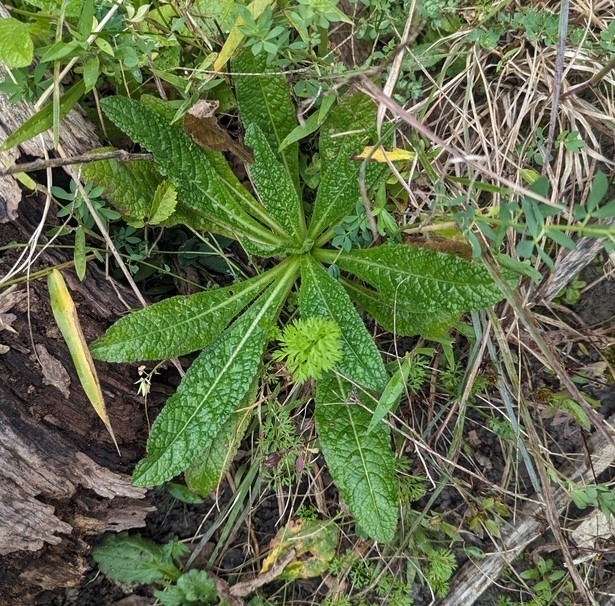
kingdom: Plantae
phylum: Tracheophyta
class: Magnoliopsida
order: Dipsacales
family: Caprifoliaceae
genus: Dipsacus
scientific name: Dipsacus fullonum
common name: Teasel
